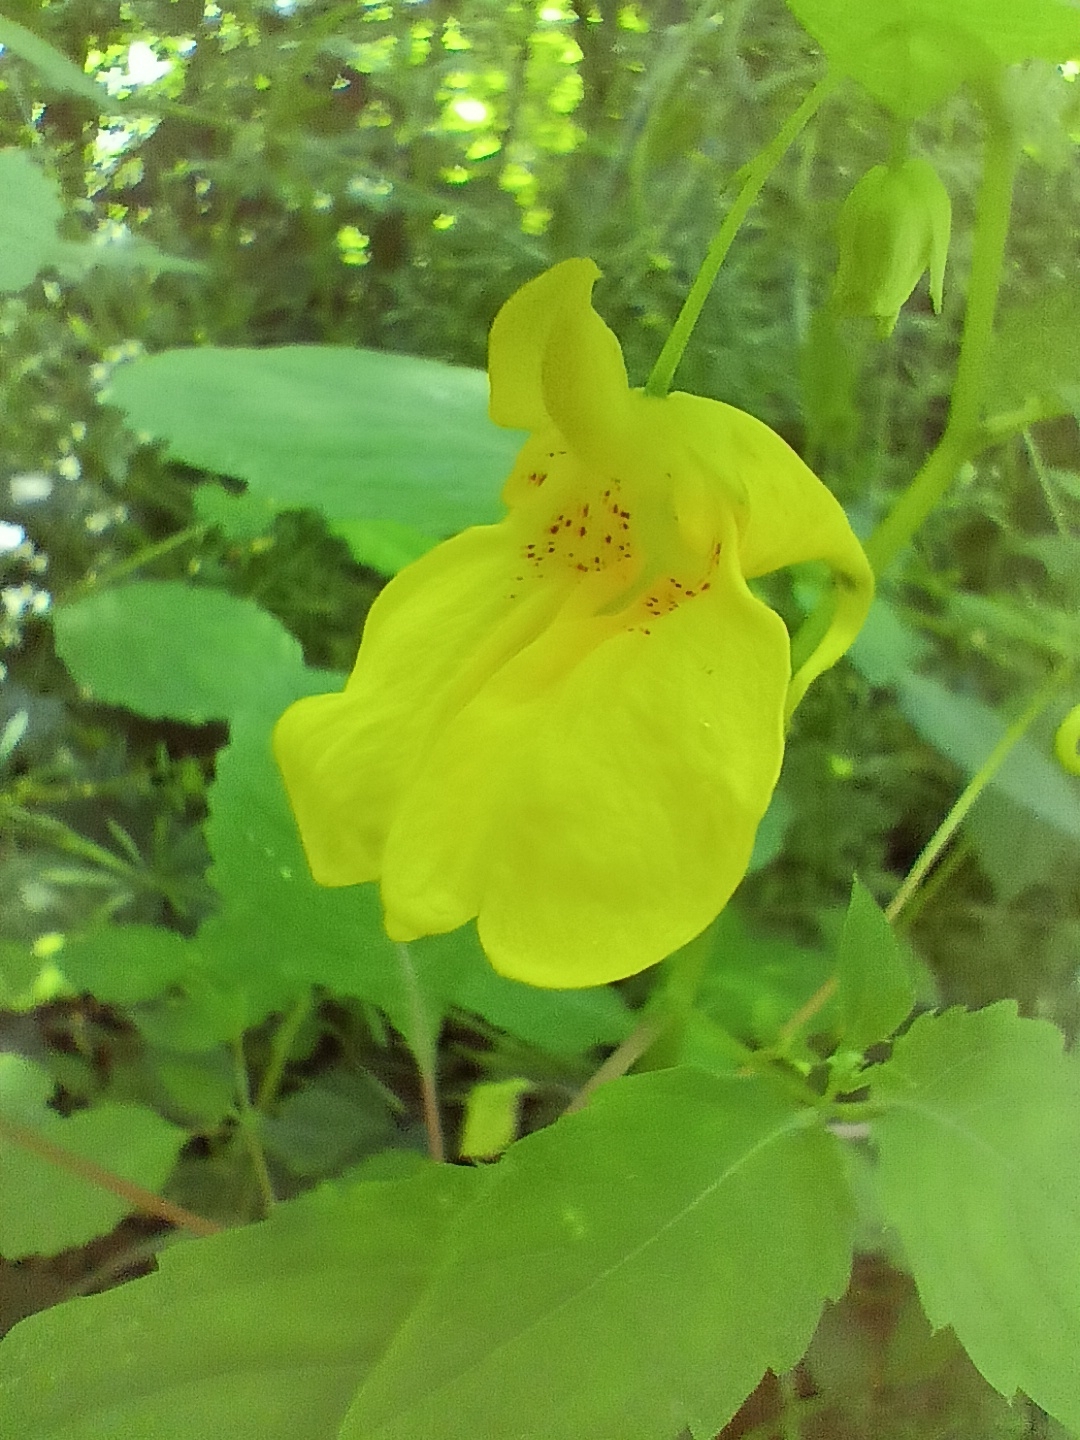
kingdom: Plantae
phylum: Tracheophyta
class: Magnoliopsida
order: Ericales
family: Balsaminaceae
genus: Impatiens
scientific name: Impatiens noli-tangere
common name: Touch-me-not balsam
